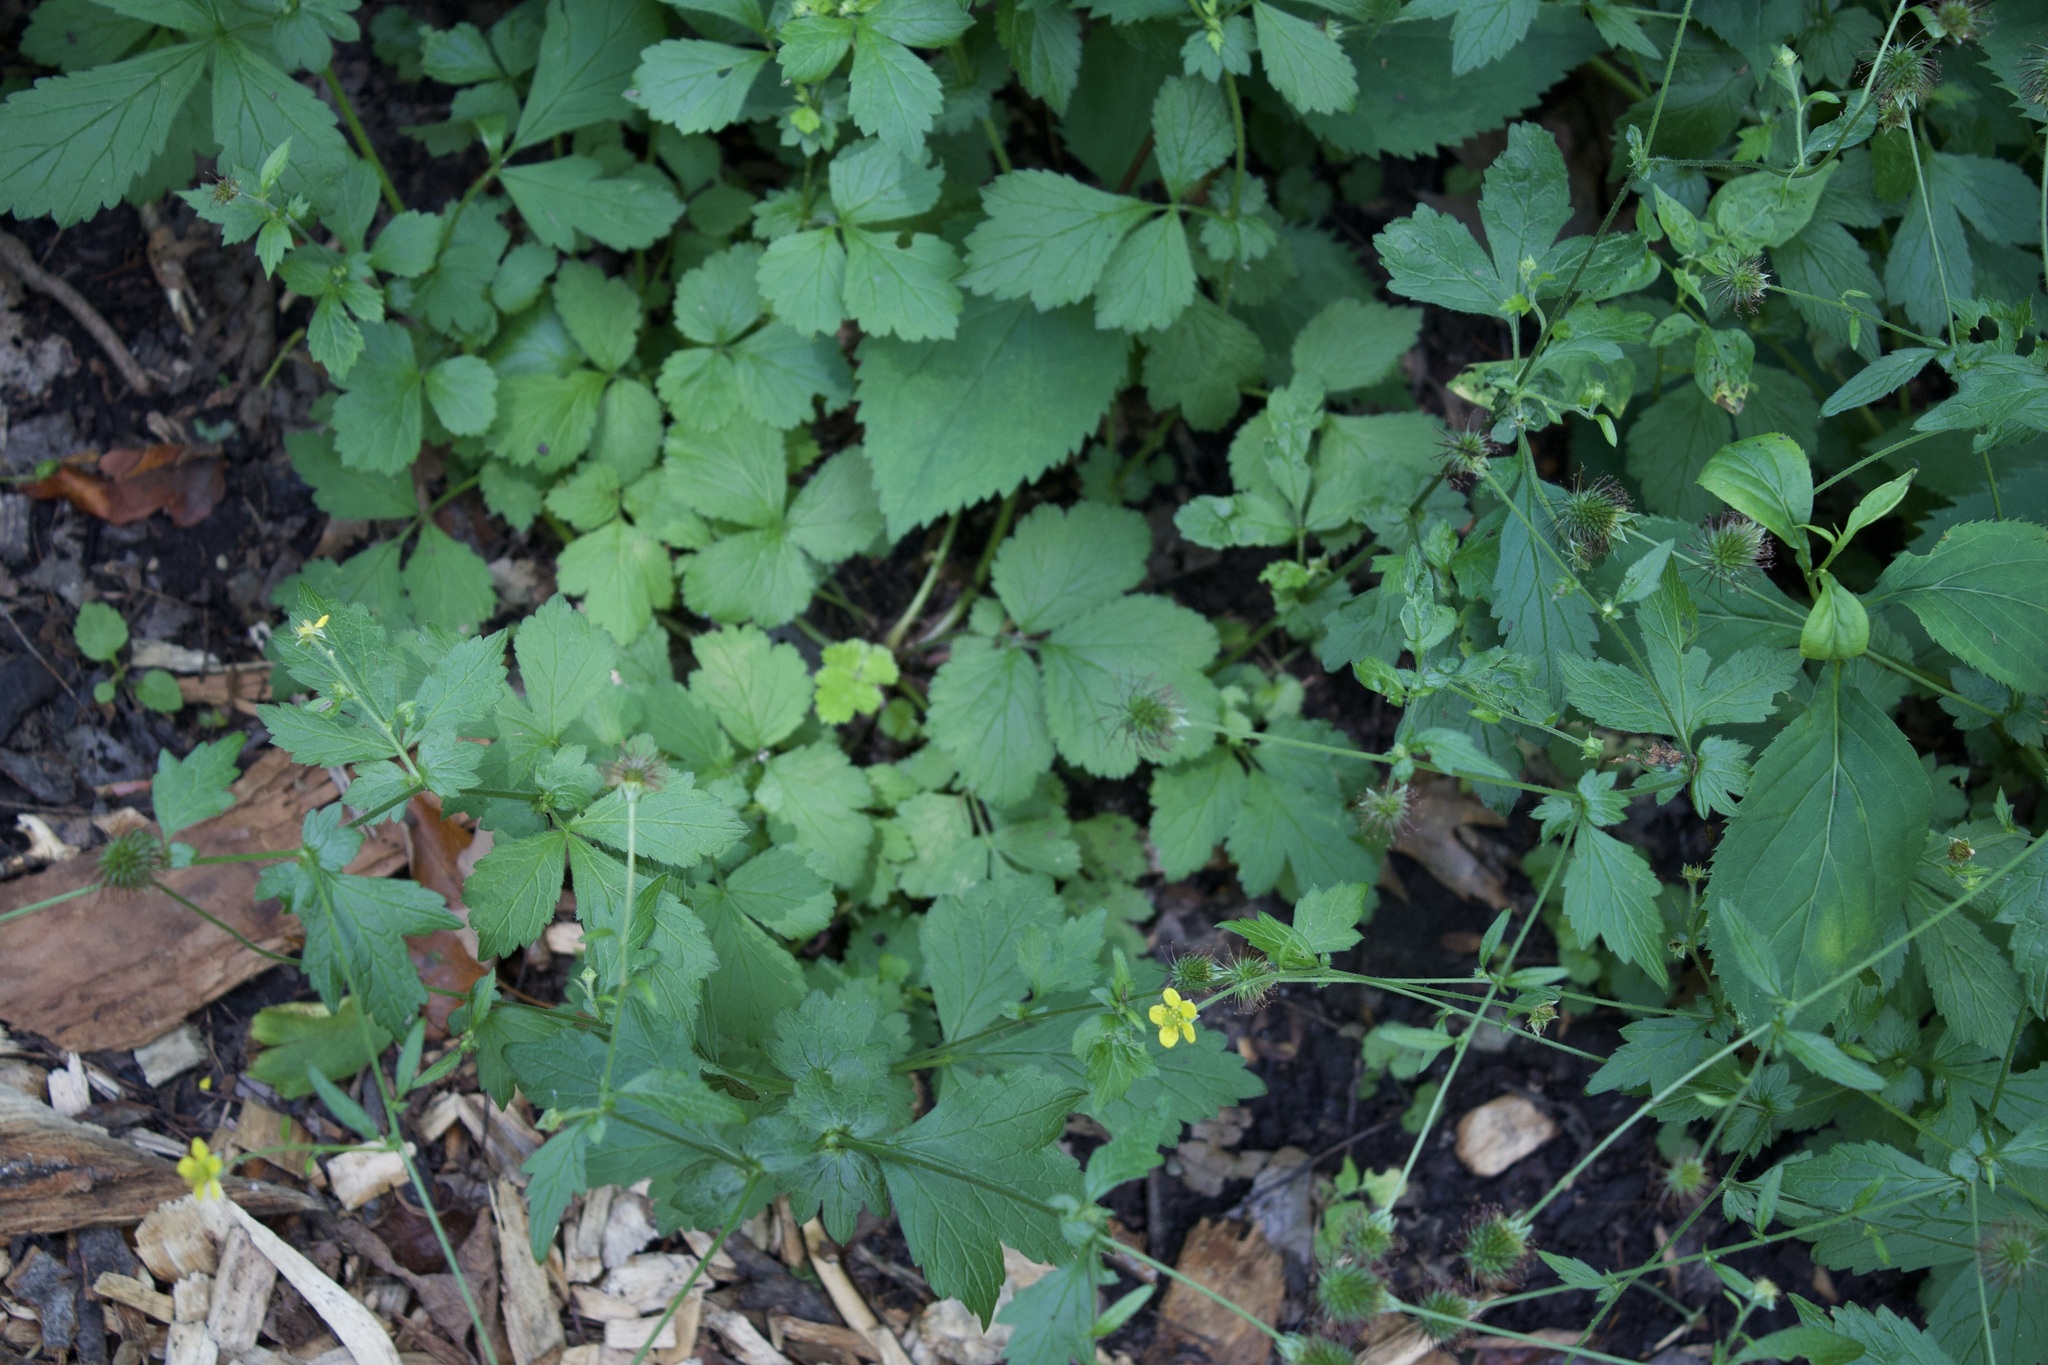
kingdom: Plantae
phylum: Tracheophyta
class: Magnoliopsida
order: Rosales
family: Rosaceae
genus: Geum
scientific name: Geum urbanum
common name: Wood avens
